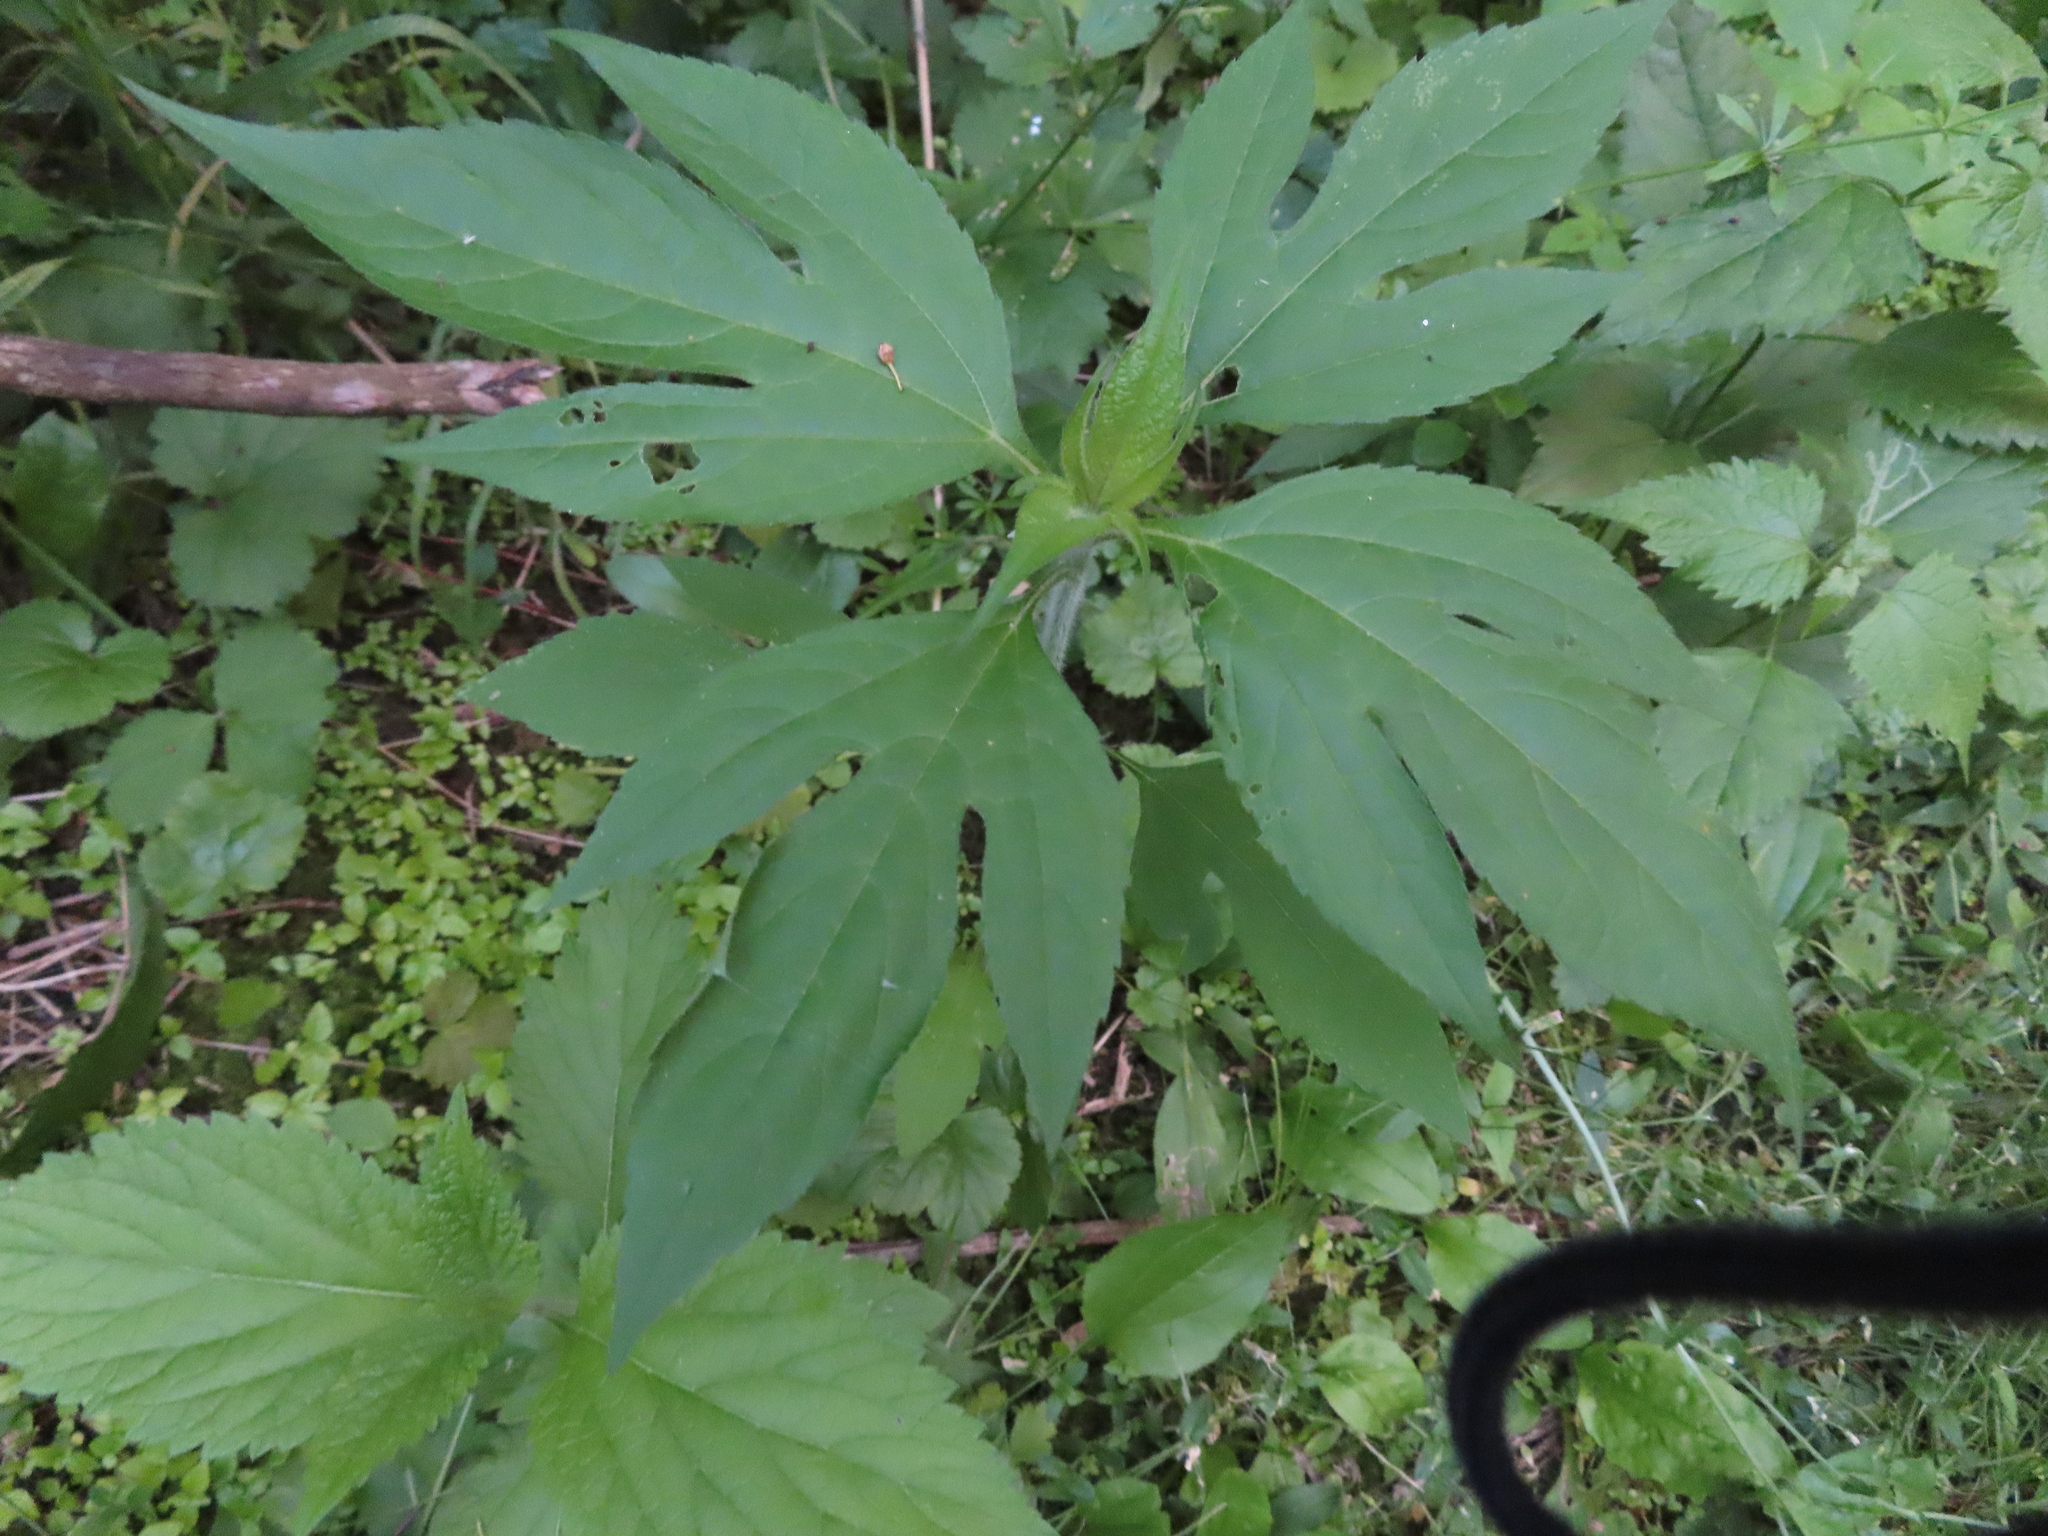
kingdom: Plantae
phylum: Tracheophyta
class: Magnoliopsida
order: Asterales
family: Asteraceae
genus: Ambrosia
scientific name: Ambrosia trifida
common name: Giant ragweed
